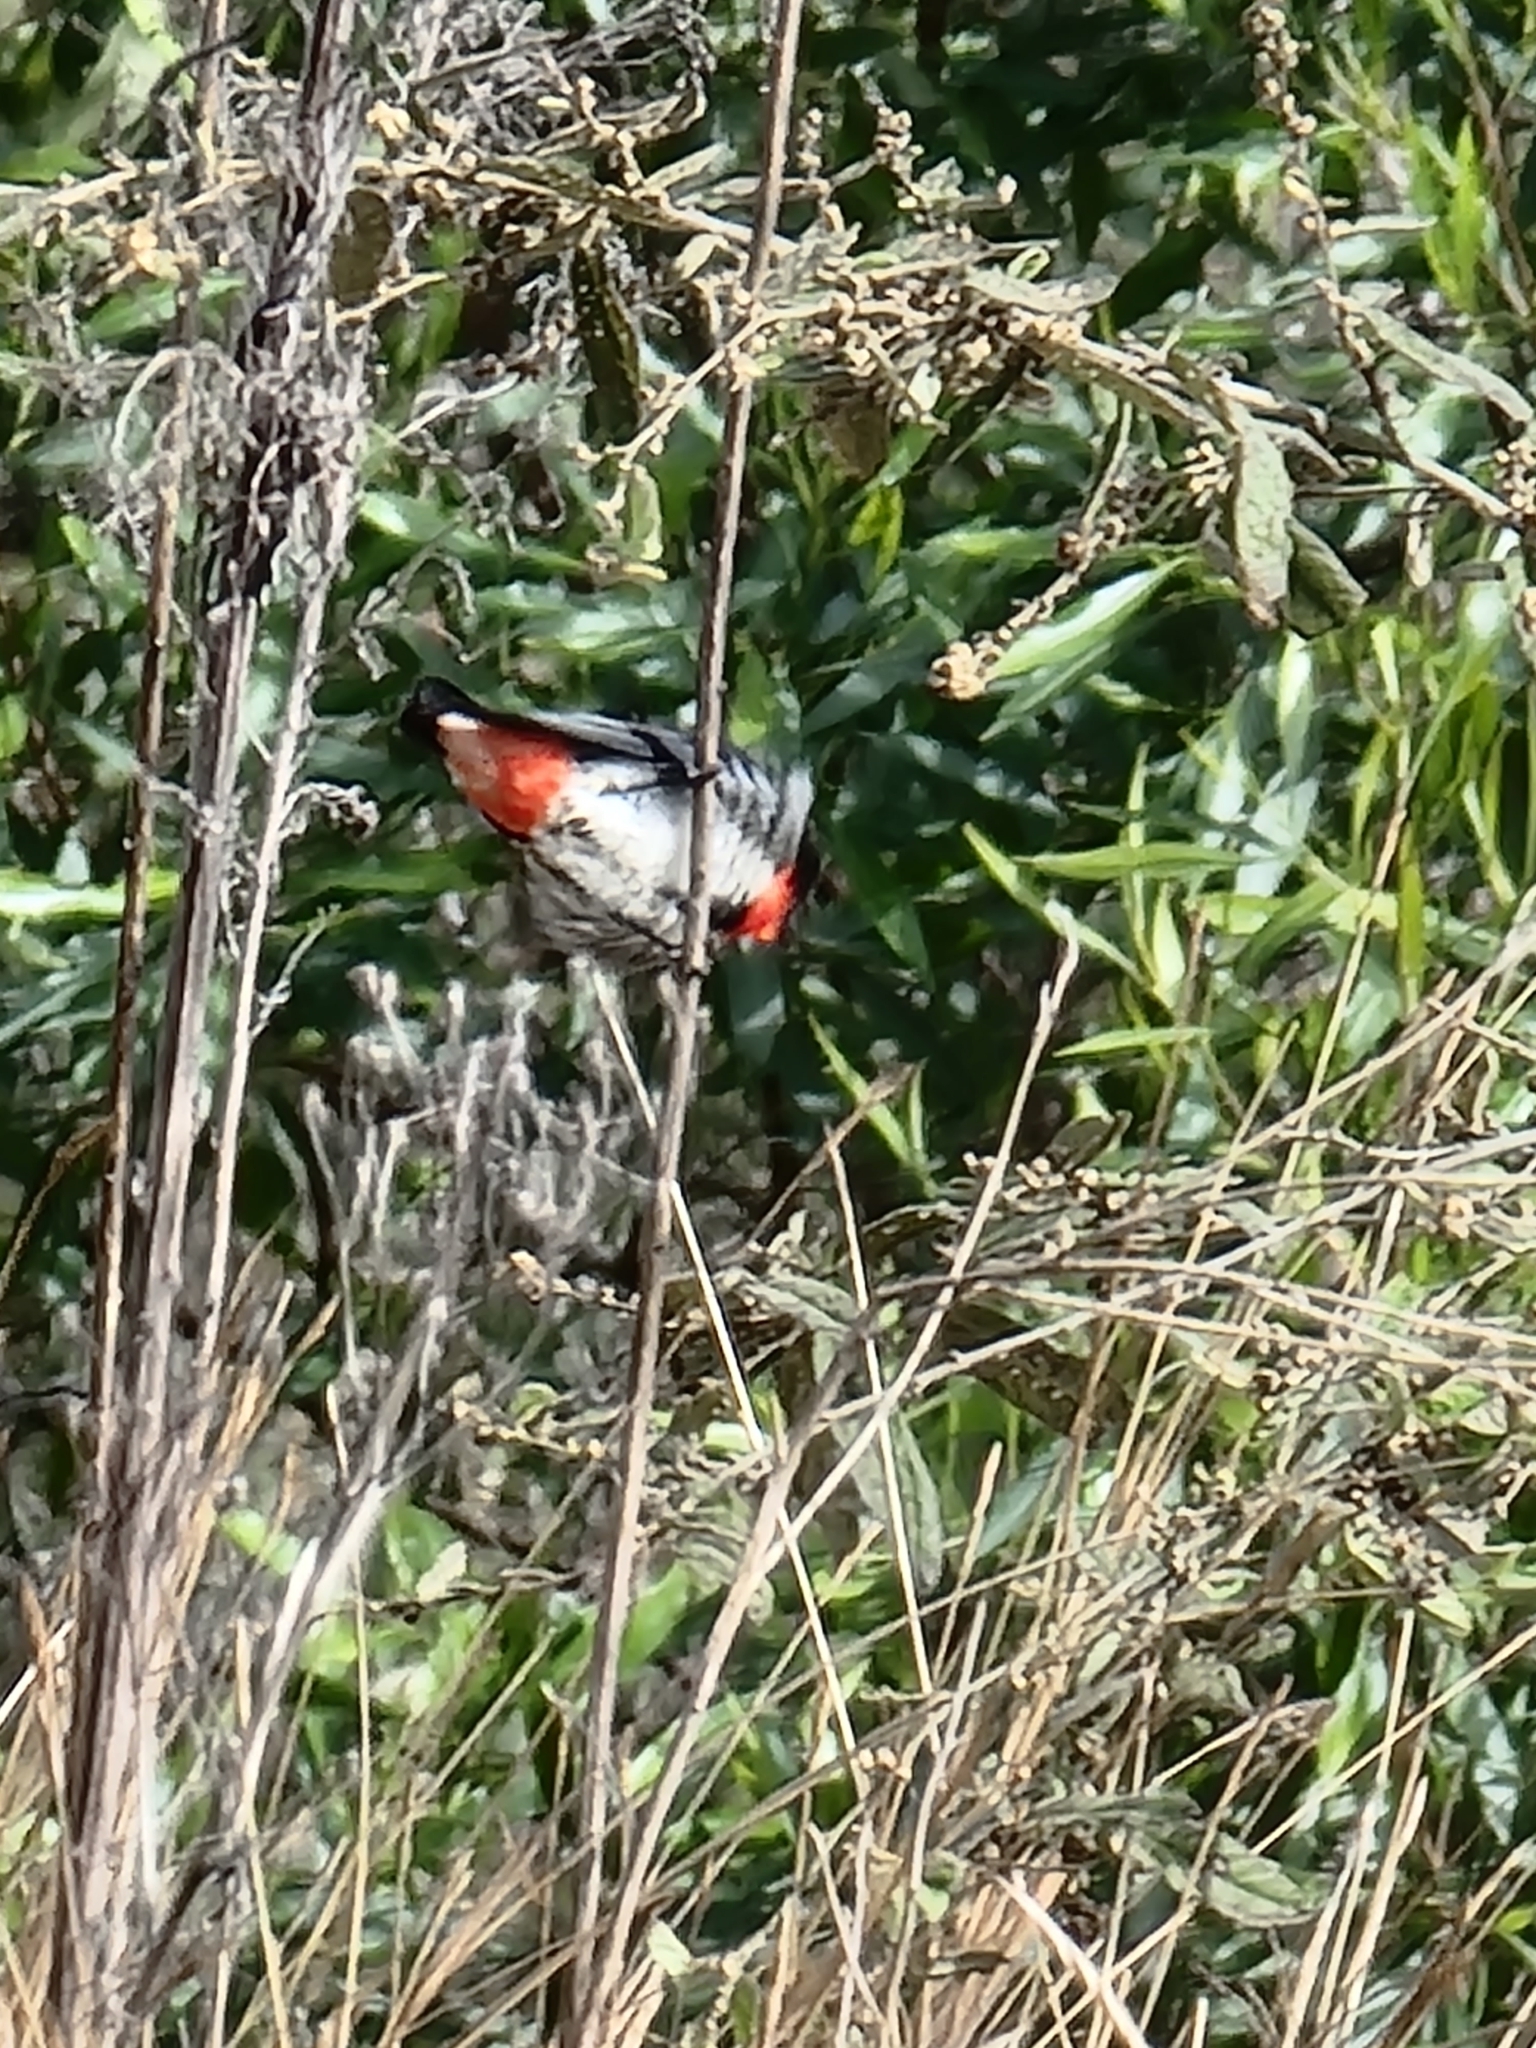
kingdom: Animalia
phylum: Chordata
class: Aves
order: Passeriformes
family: Dicaeidae
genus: Dicaeum
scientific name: Dicaeum hirundinaceum
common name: Mistletoebird
